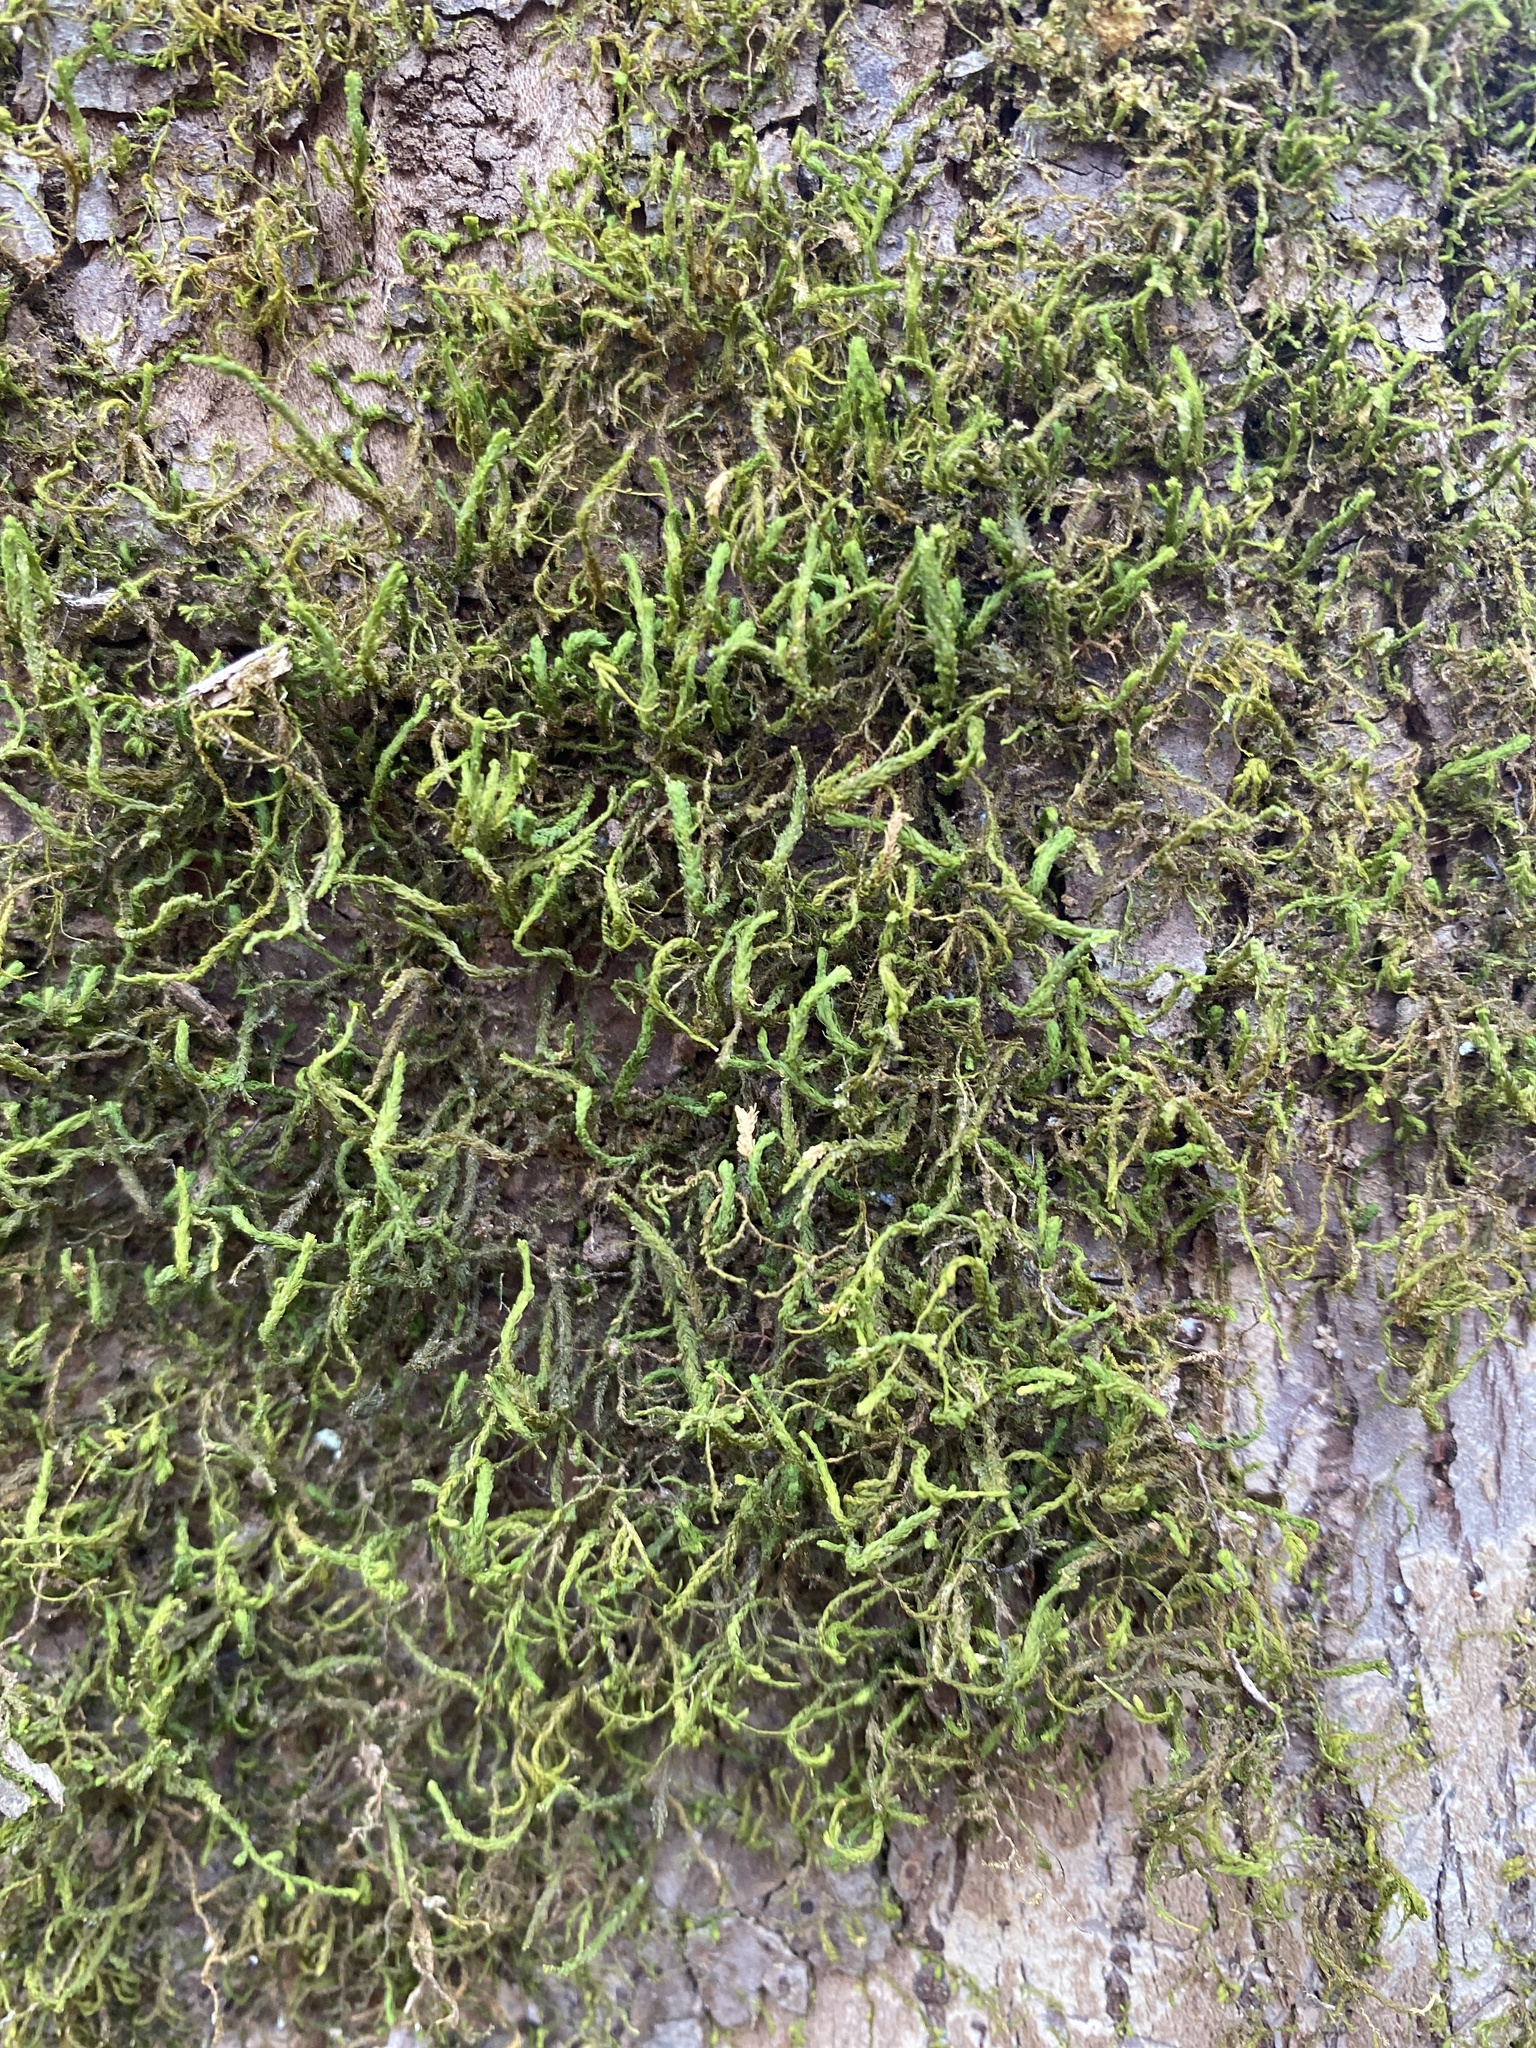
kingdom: Plantae
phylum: Bryophyta
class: Bryopsida
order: Hypnales
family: Neckeraceae
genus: Pseudanomodon
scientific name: Pseudanomodon attenuatus
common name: Tree-skirt moss
